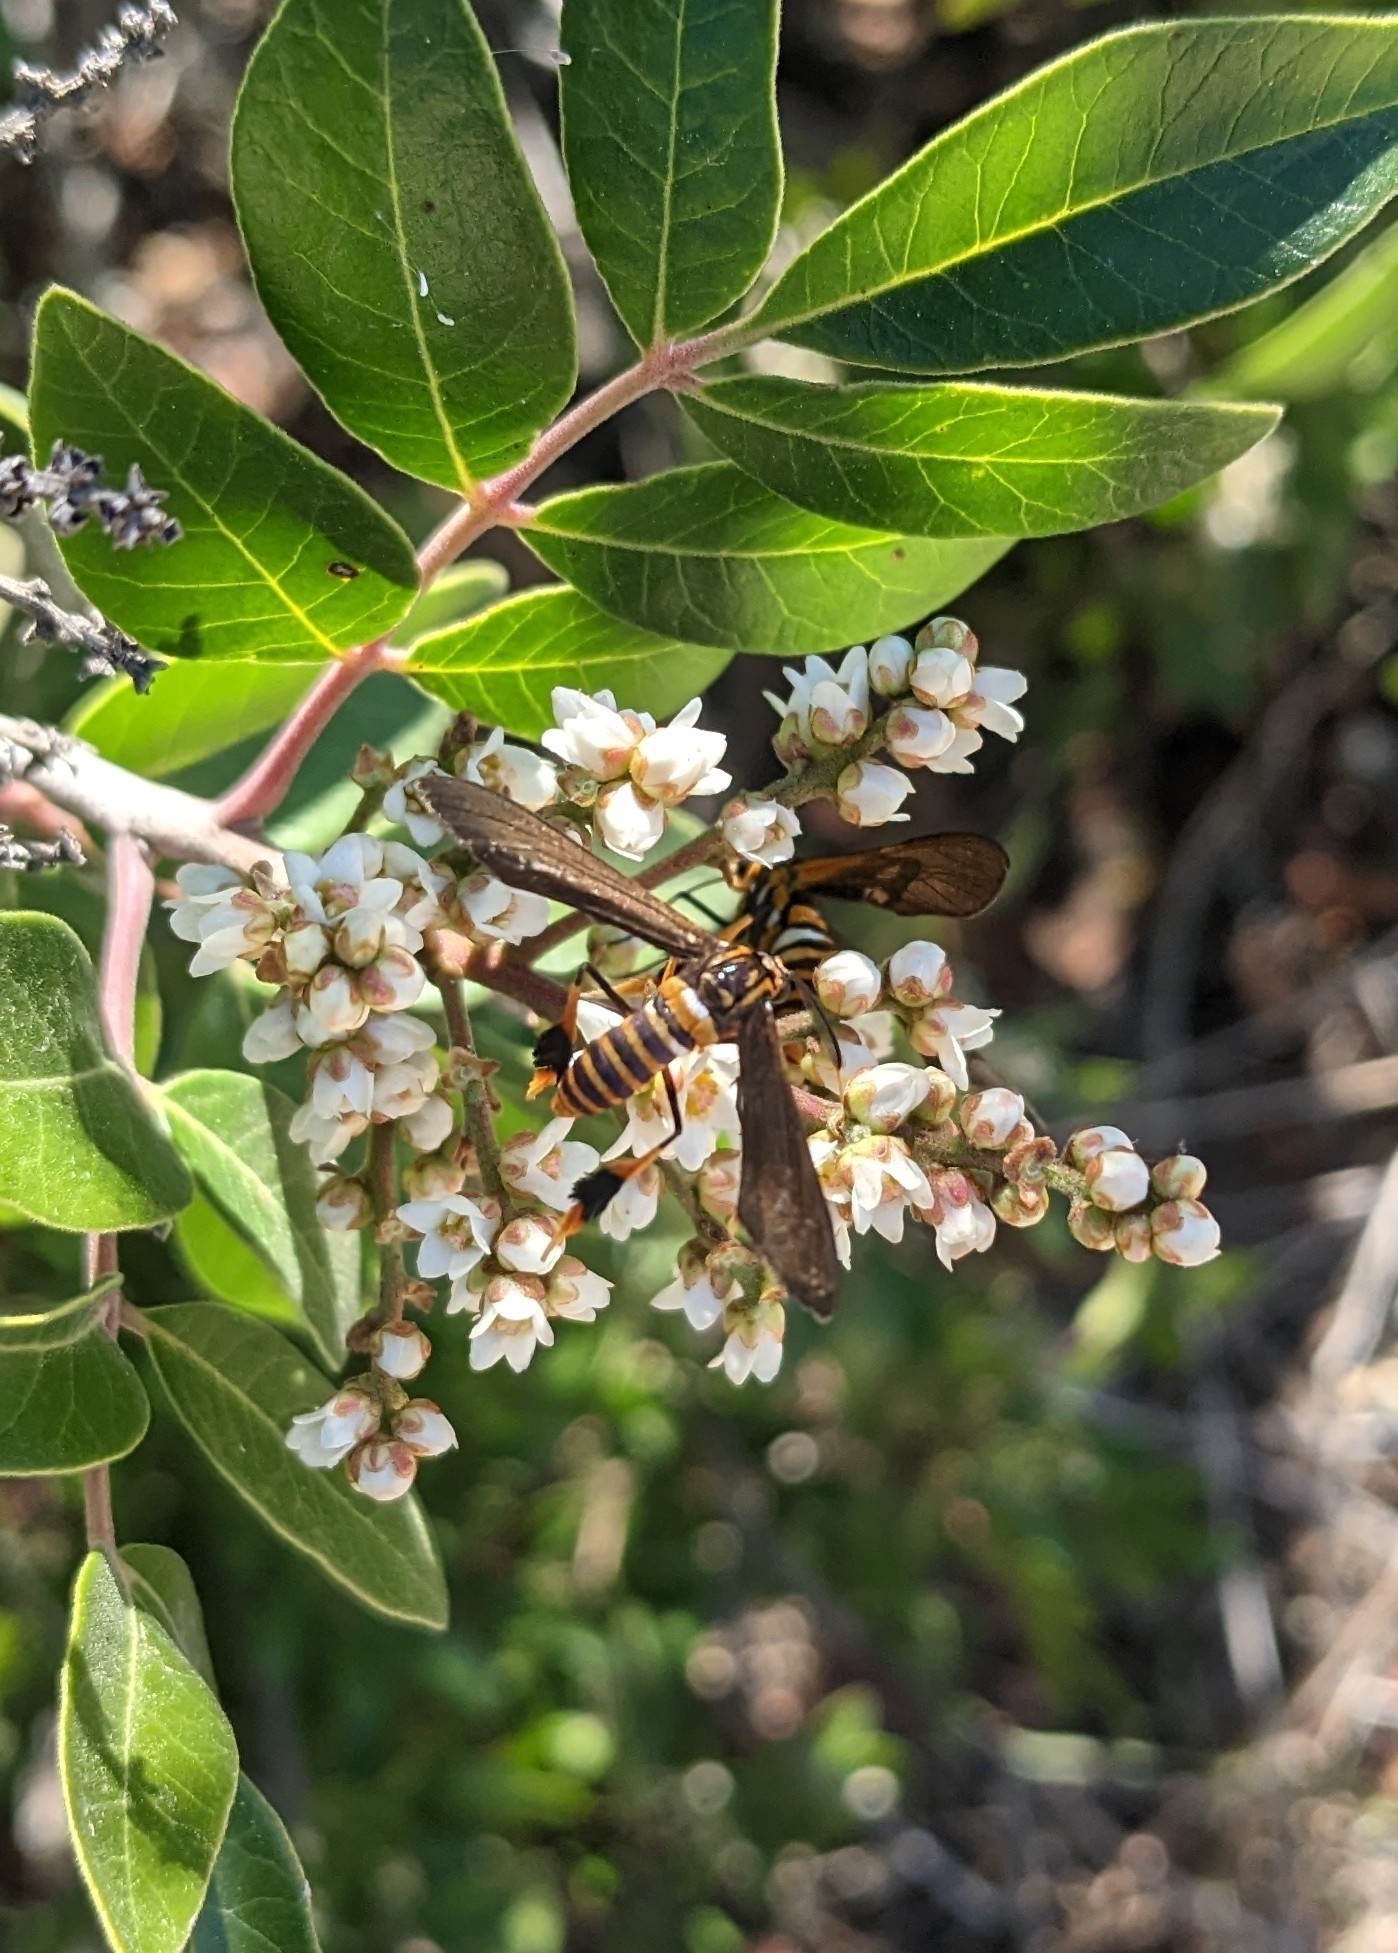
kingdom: Animalia
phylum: Arthropoda
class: Insecta
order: Lepidoptera
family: Erebidae
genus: Horama
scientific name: Horama panthalon
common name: Texas wasp moth
